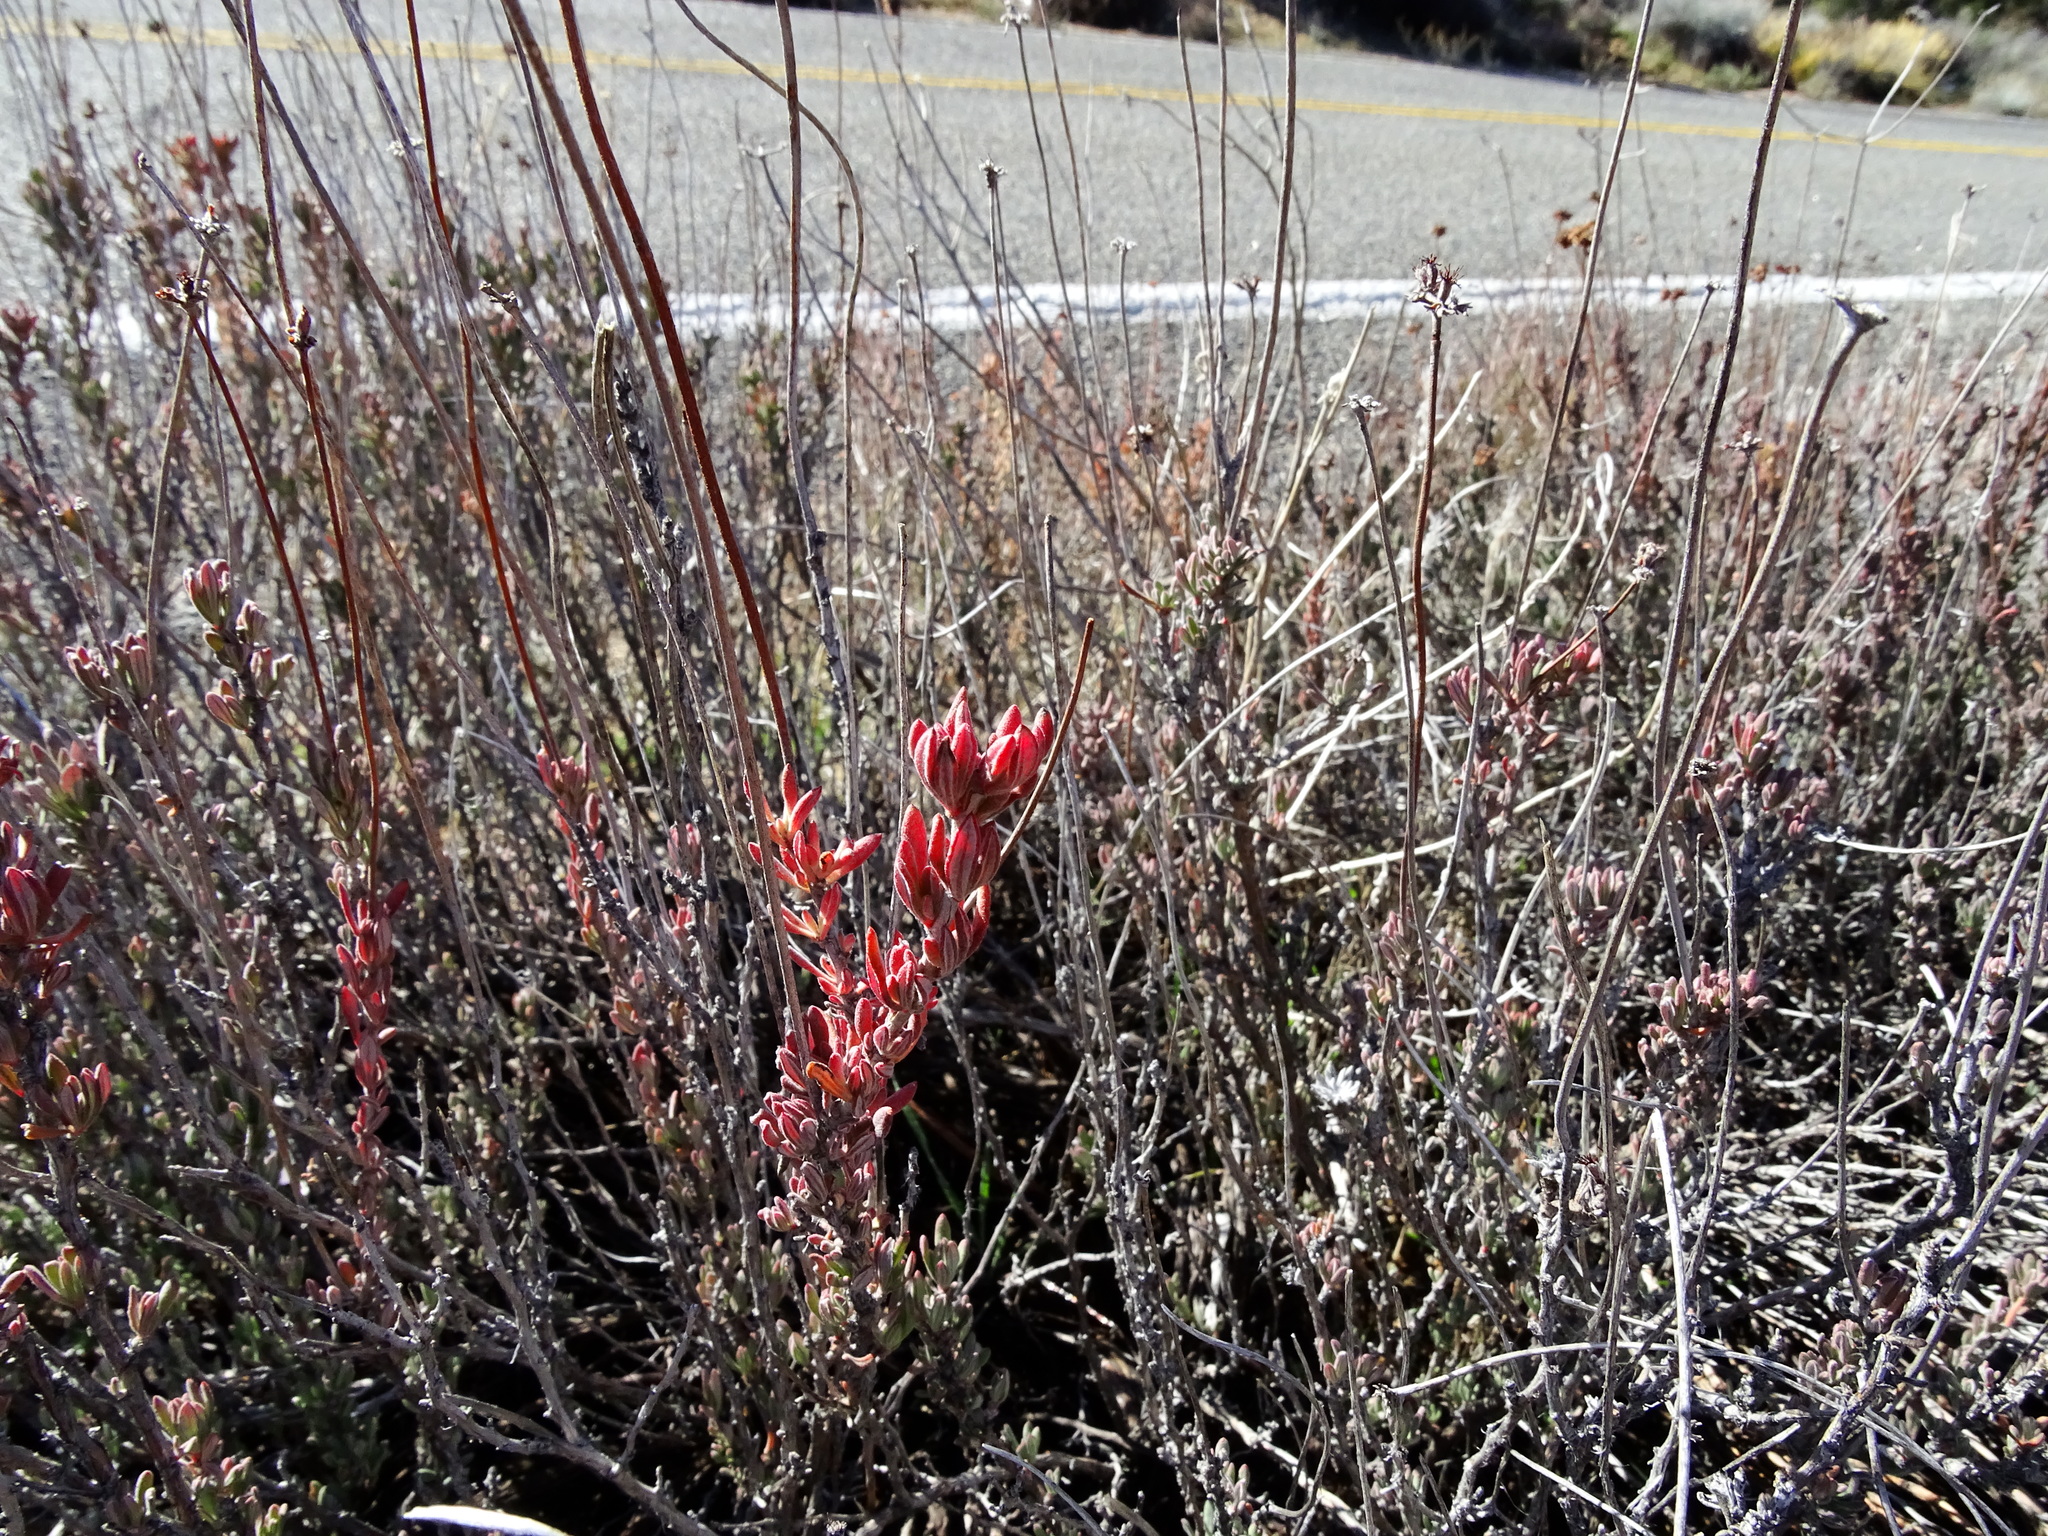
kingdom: Plantae
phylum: Tracheophyta
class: Magnoliopsida
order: Caryophyllales
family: Polygonaceae
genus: Eriogonum
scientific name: Eriogonum fasciculatum
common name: California wild buckwheat
